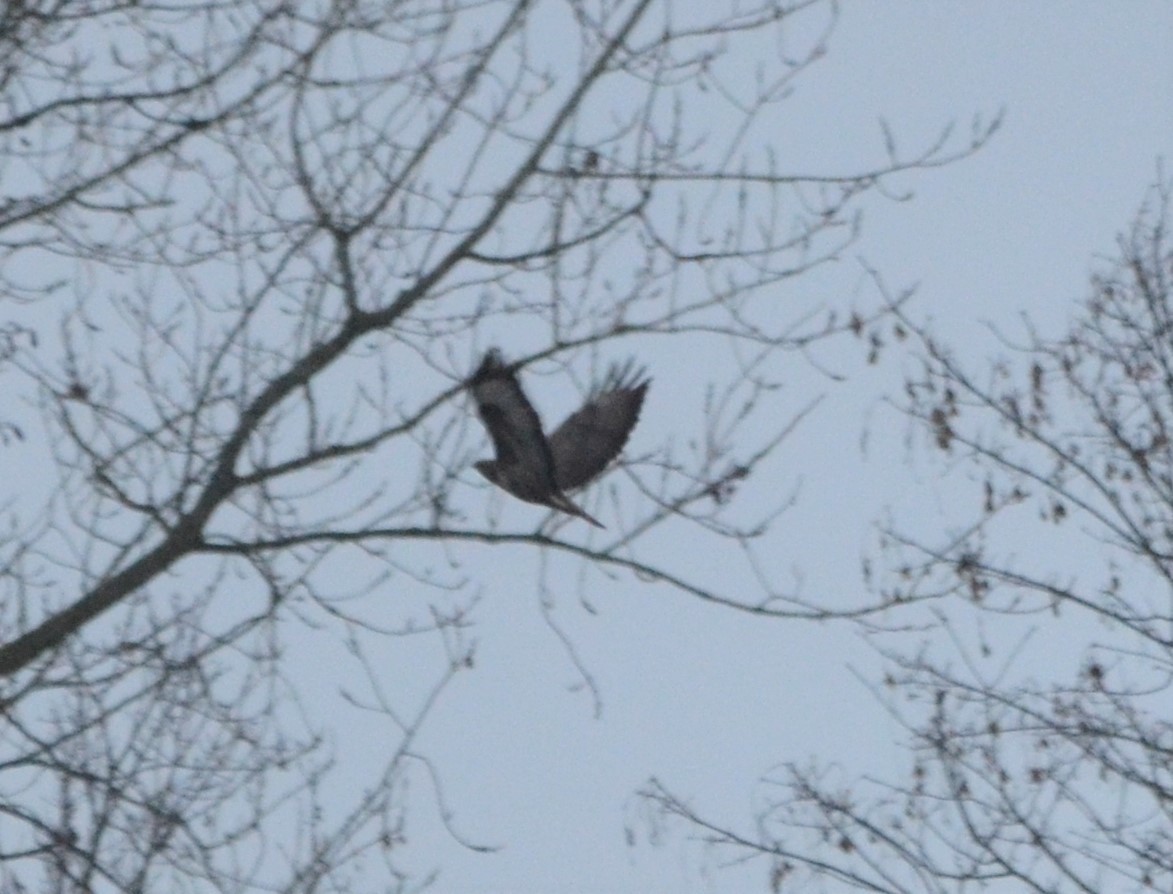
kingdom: Animalia
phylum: Chordata
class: Aves
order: Accipitriformes
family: Accipitridae
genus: Buteo
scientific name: Buteo buteo
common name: Common buzzard
